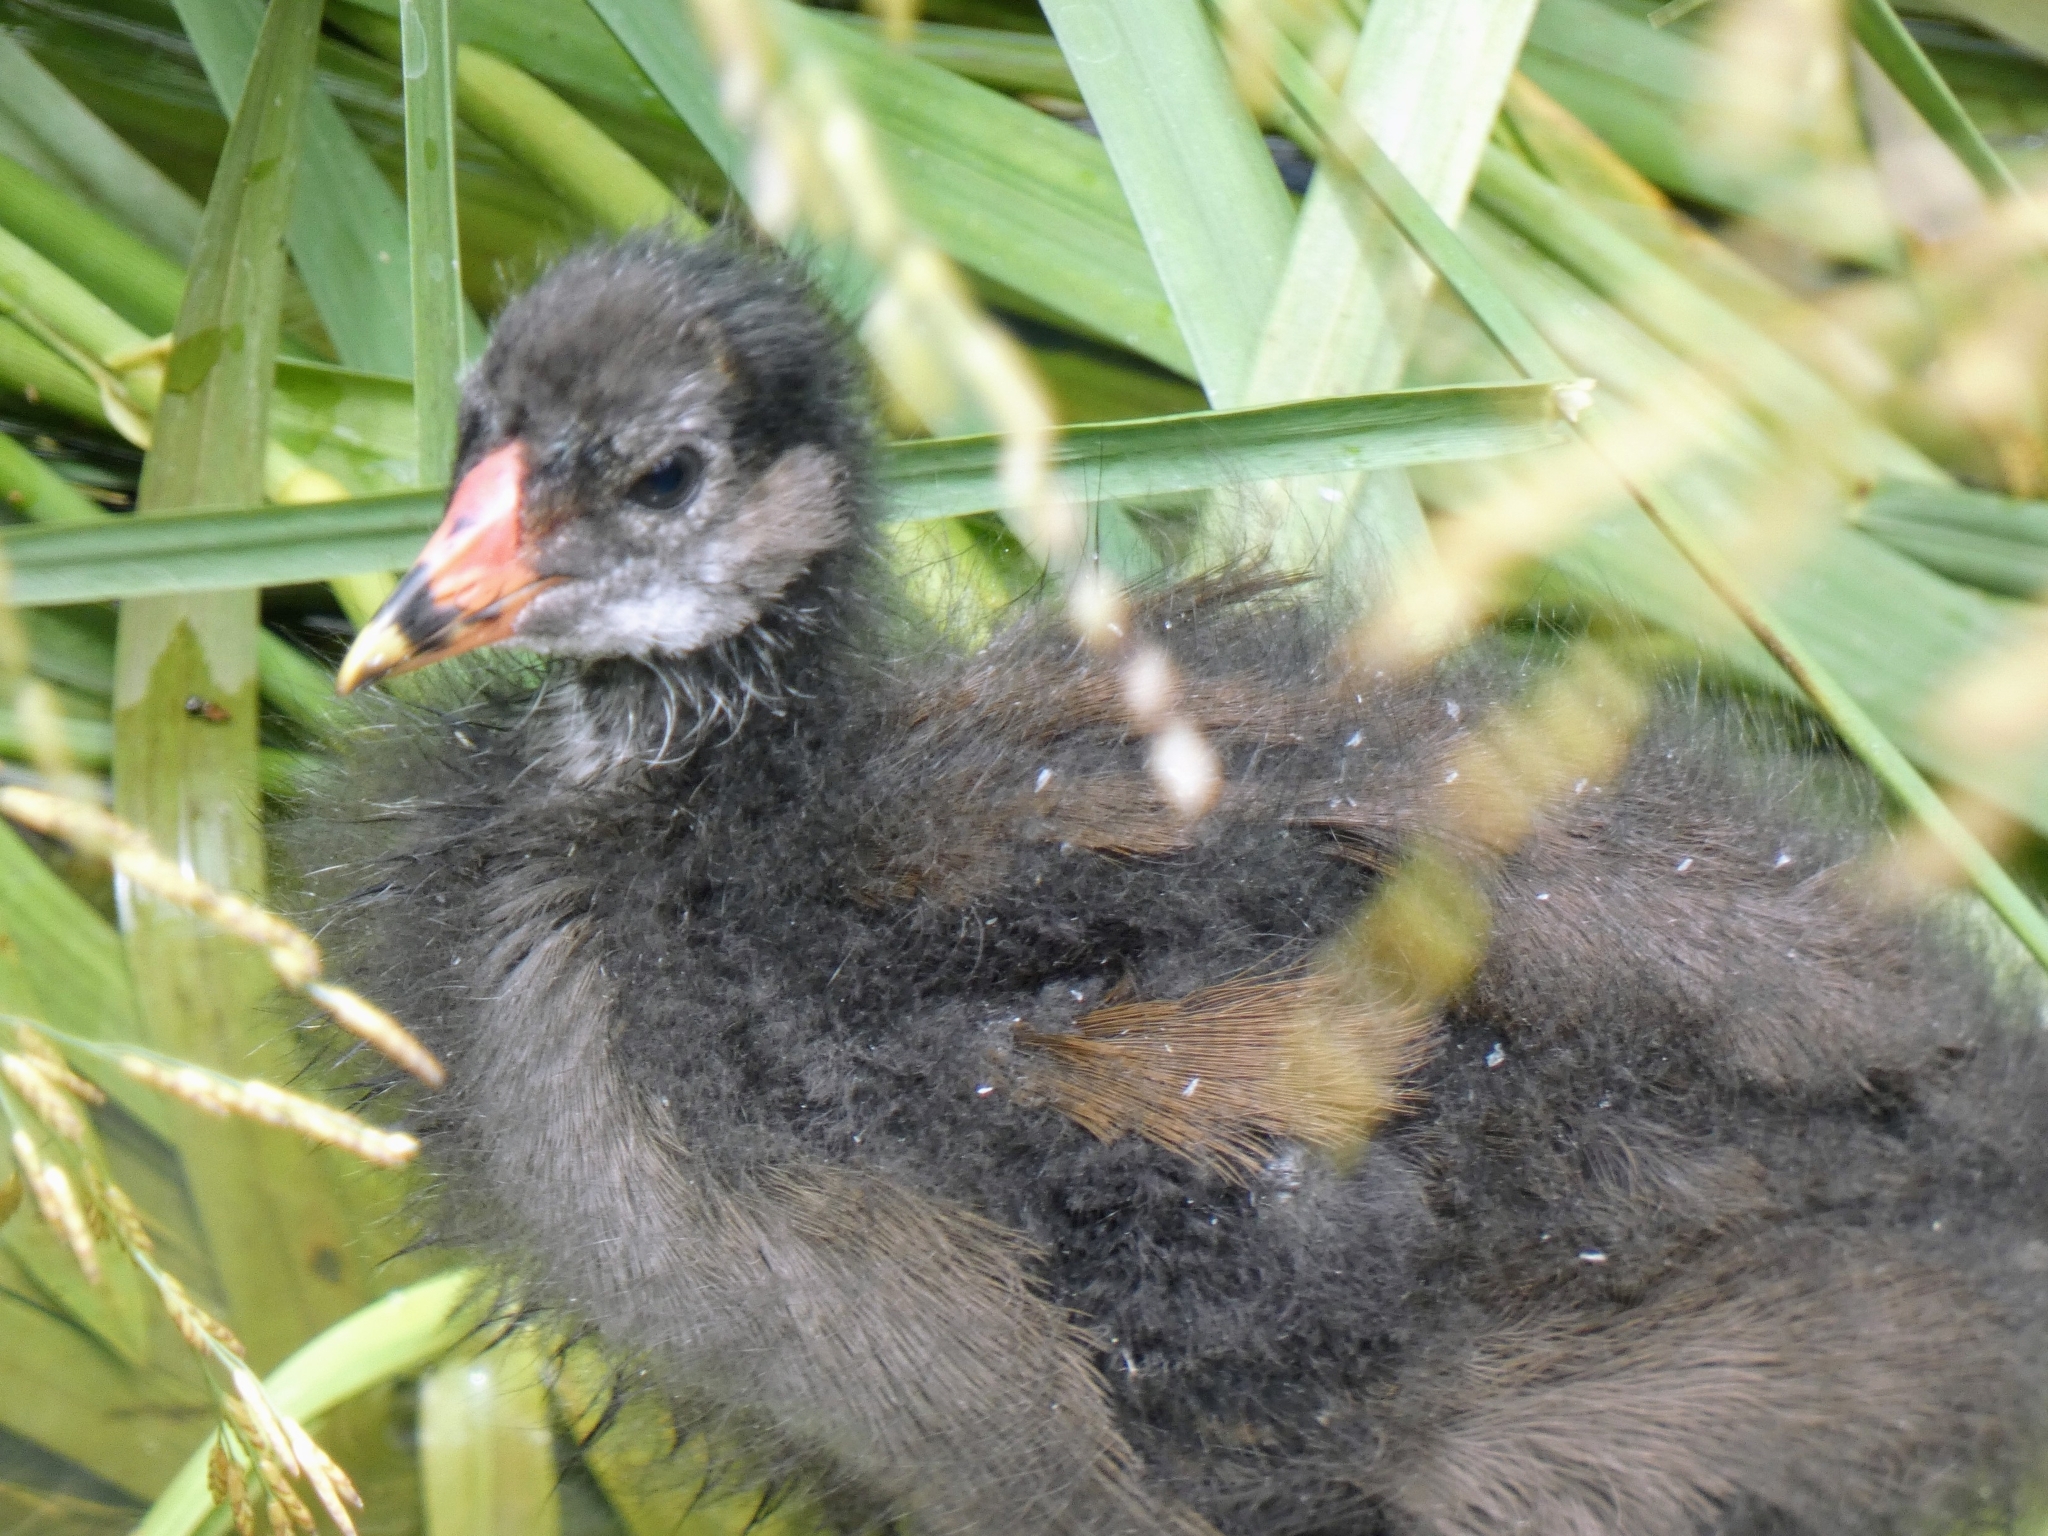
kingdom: Animalia
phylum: Chordata
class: Aves
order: Gruiformes
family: Rallidae
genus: Gallinula
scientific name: Gallinula chloropus
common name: Common moorhen
